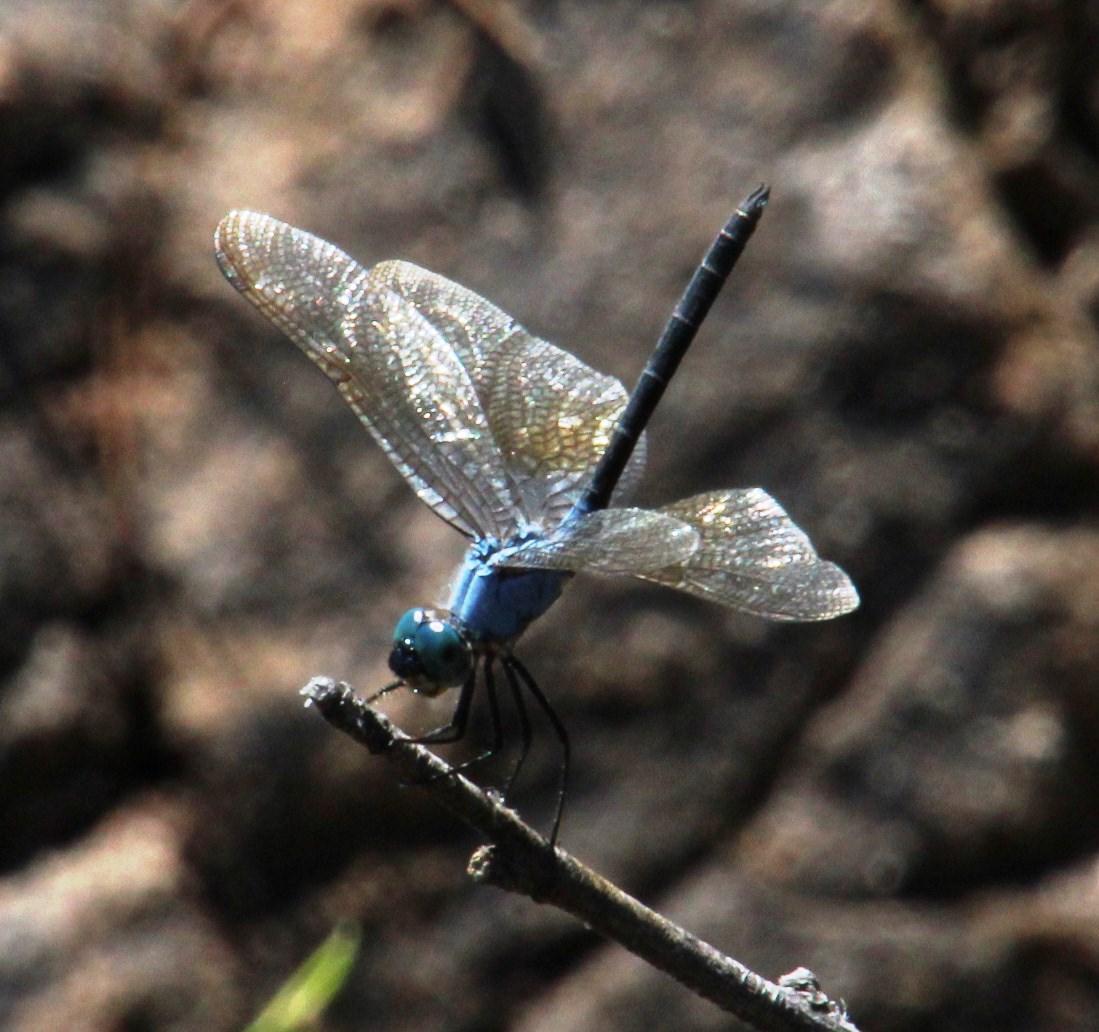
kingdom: Animalia
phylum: Arthropoda
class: Insecta
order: Odonata
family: Libellulidae
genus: Trithemis
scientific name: Trithemis stictica
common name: Jaunty dropwing
